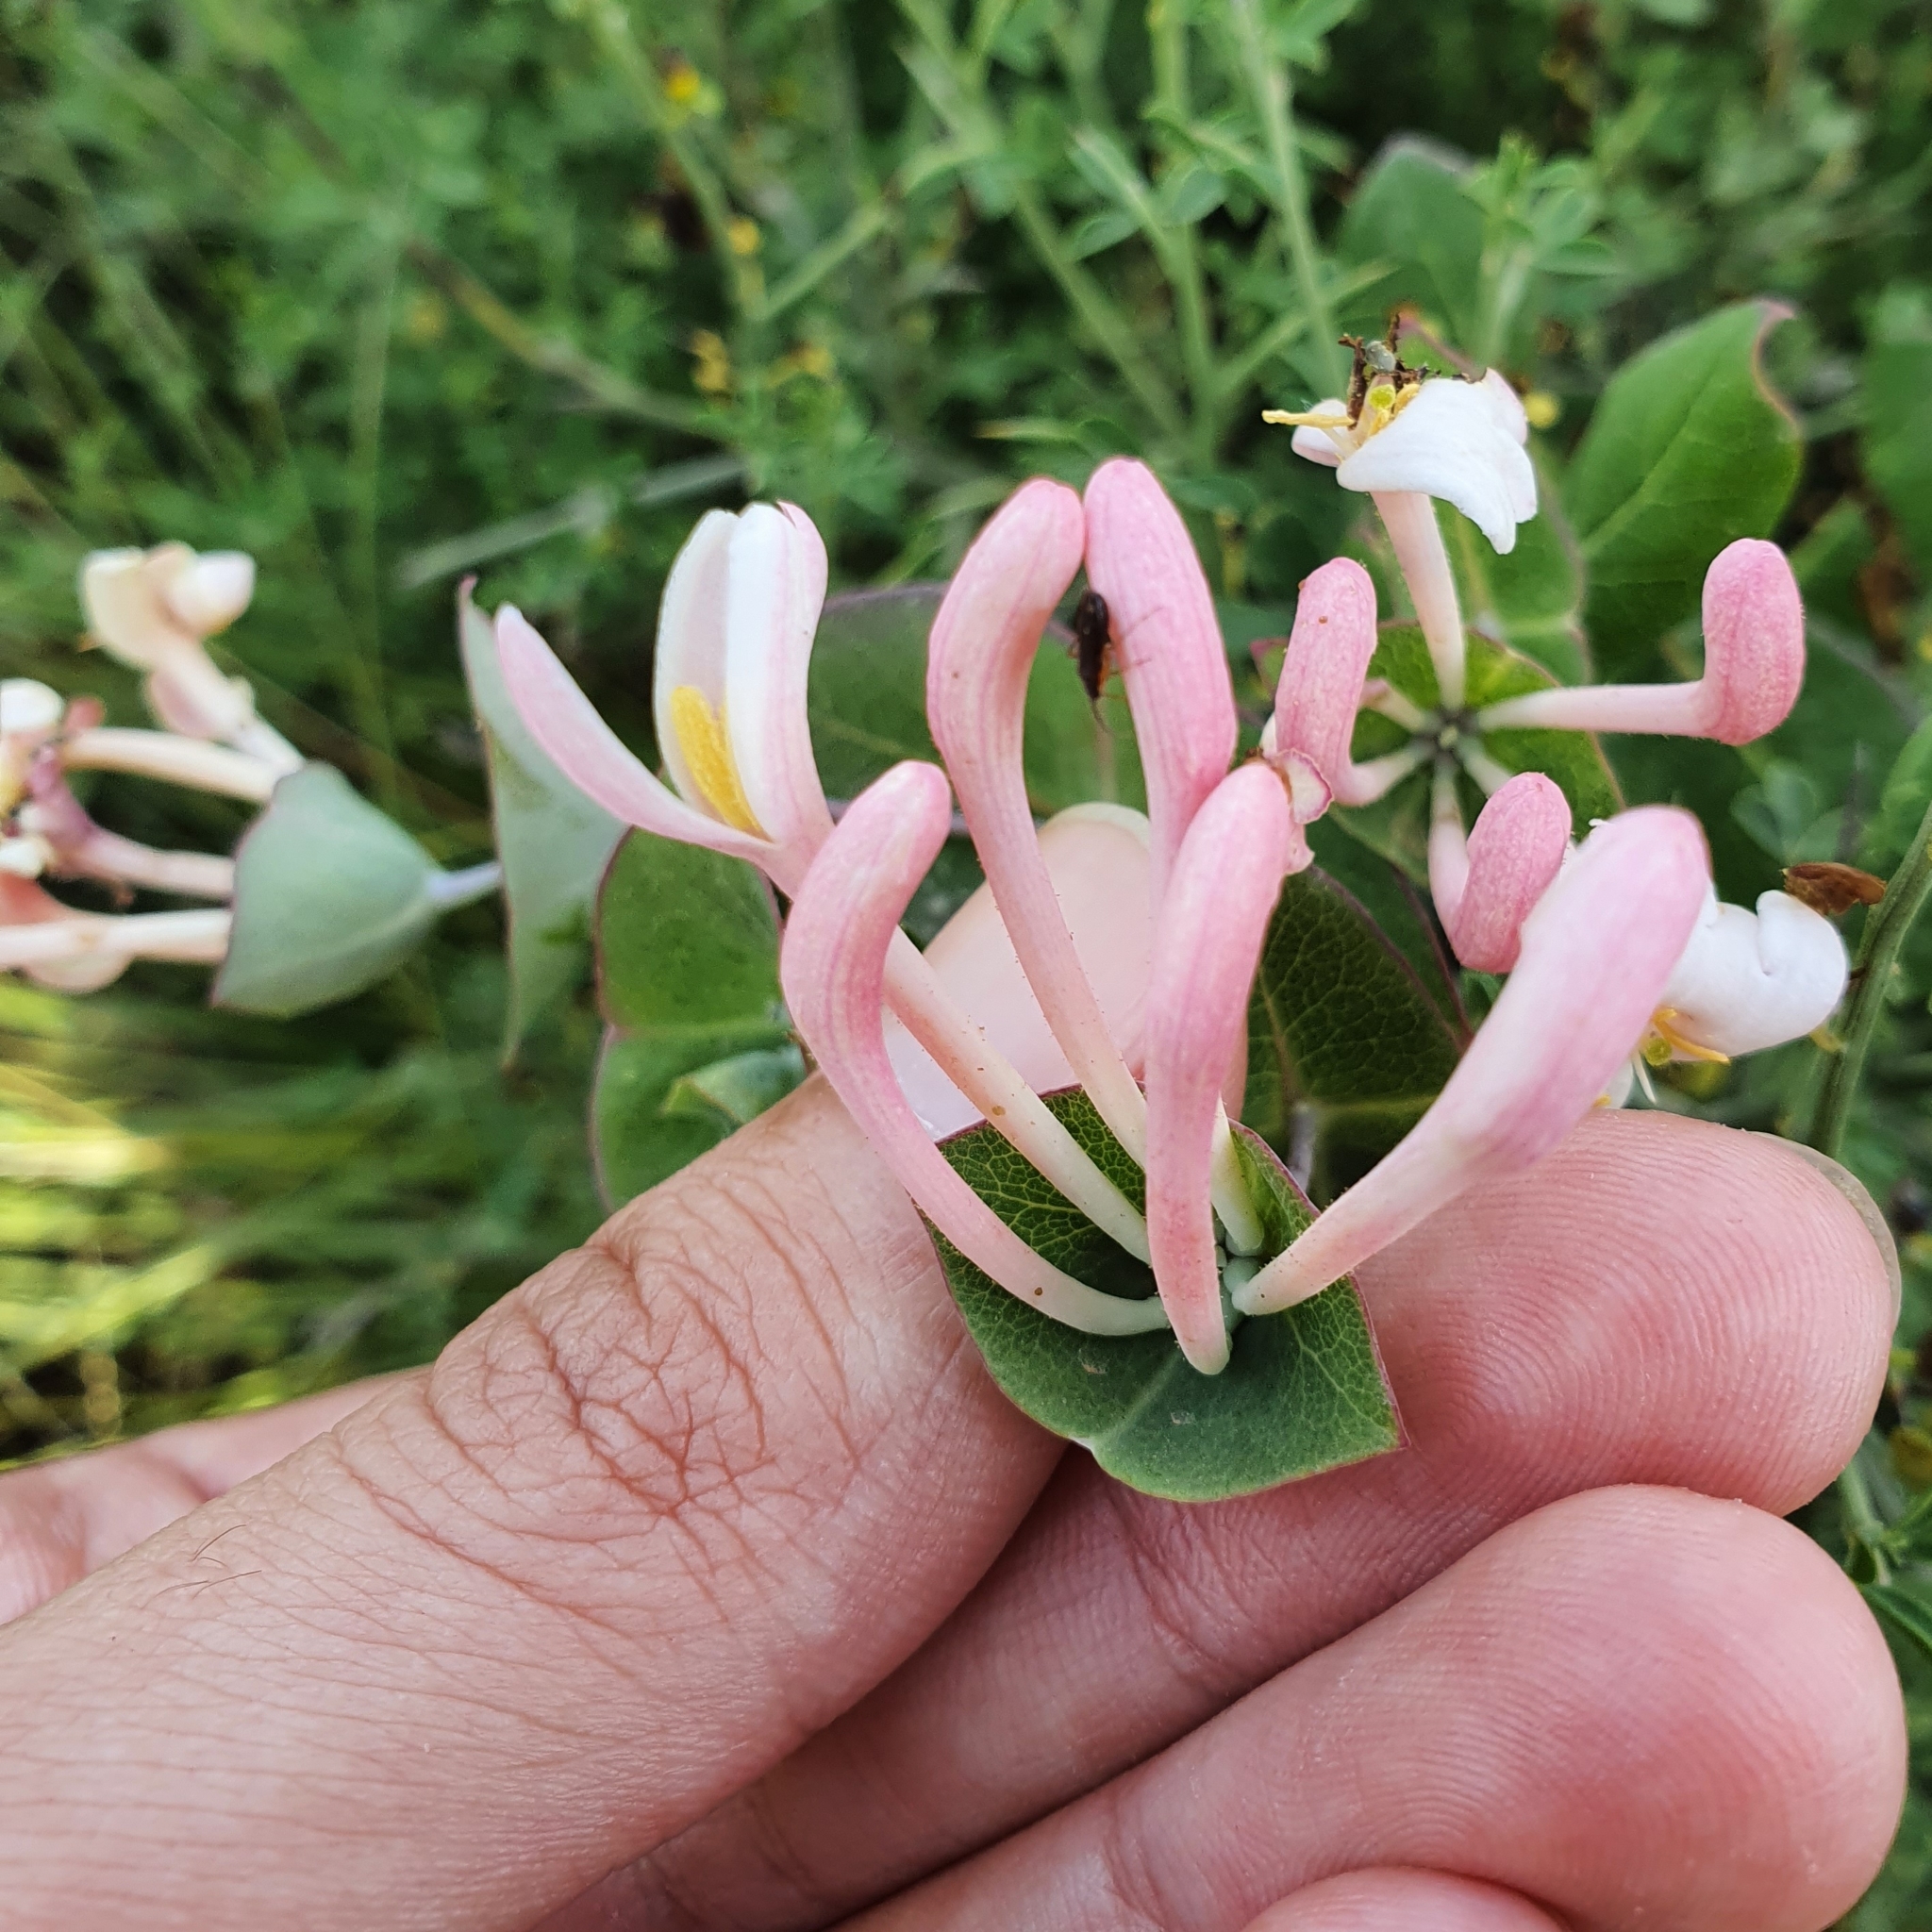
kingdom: Plantae
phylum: Tracheophyta
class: Magnoliopsida
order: Dipsacales
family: Caprifoliaceae
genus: Lonicera
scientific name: Lonicera implexa
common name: Minorca honeysuckle
